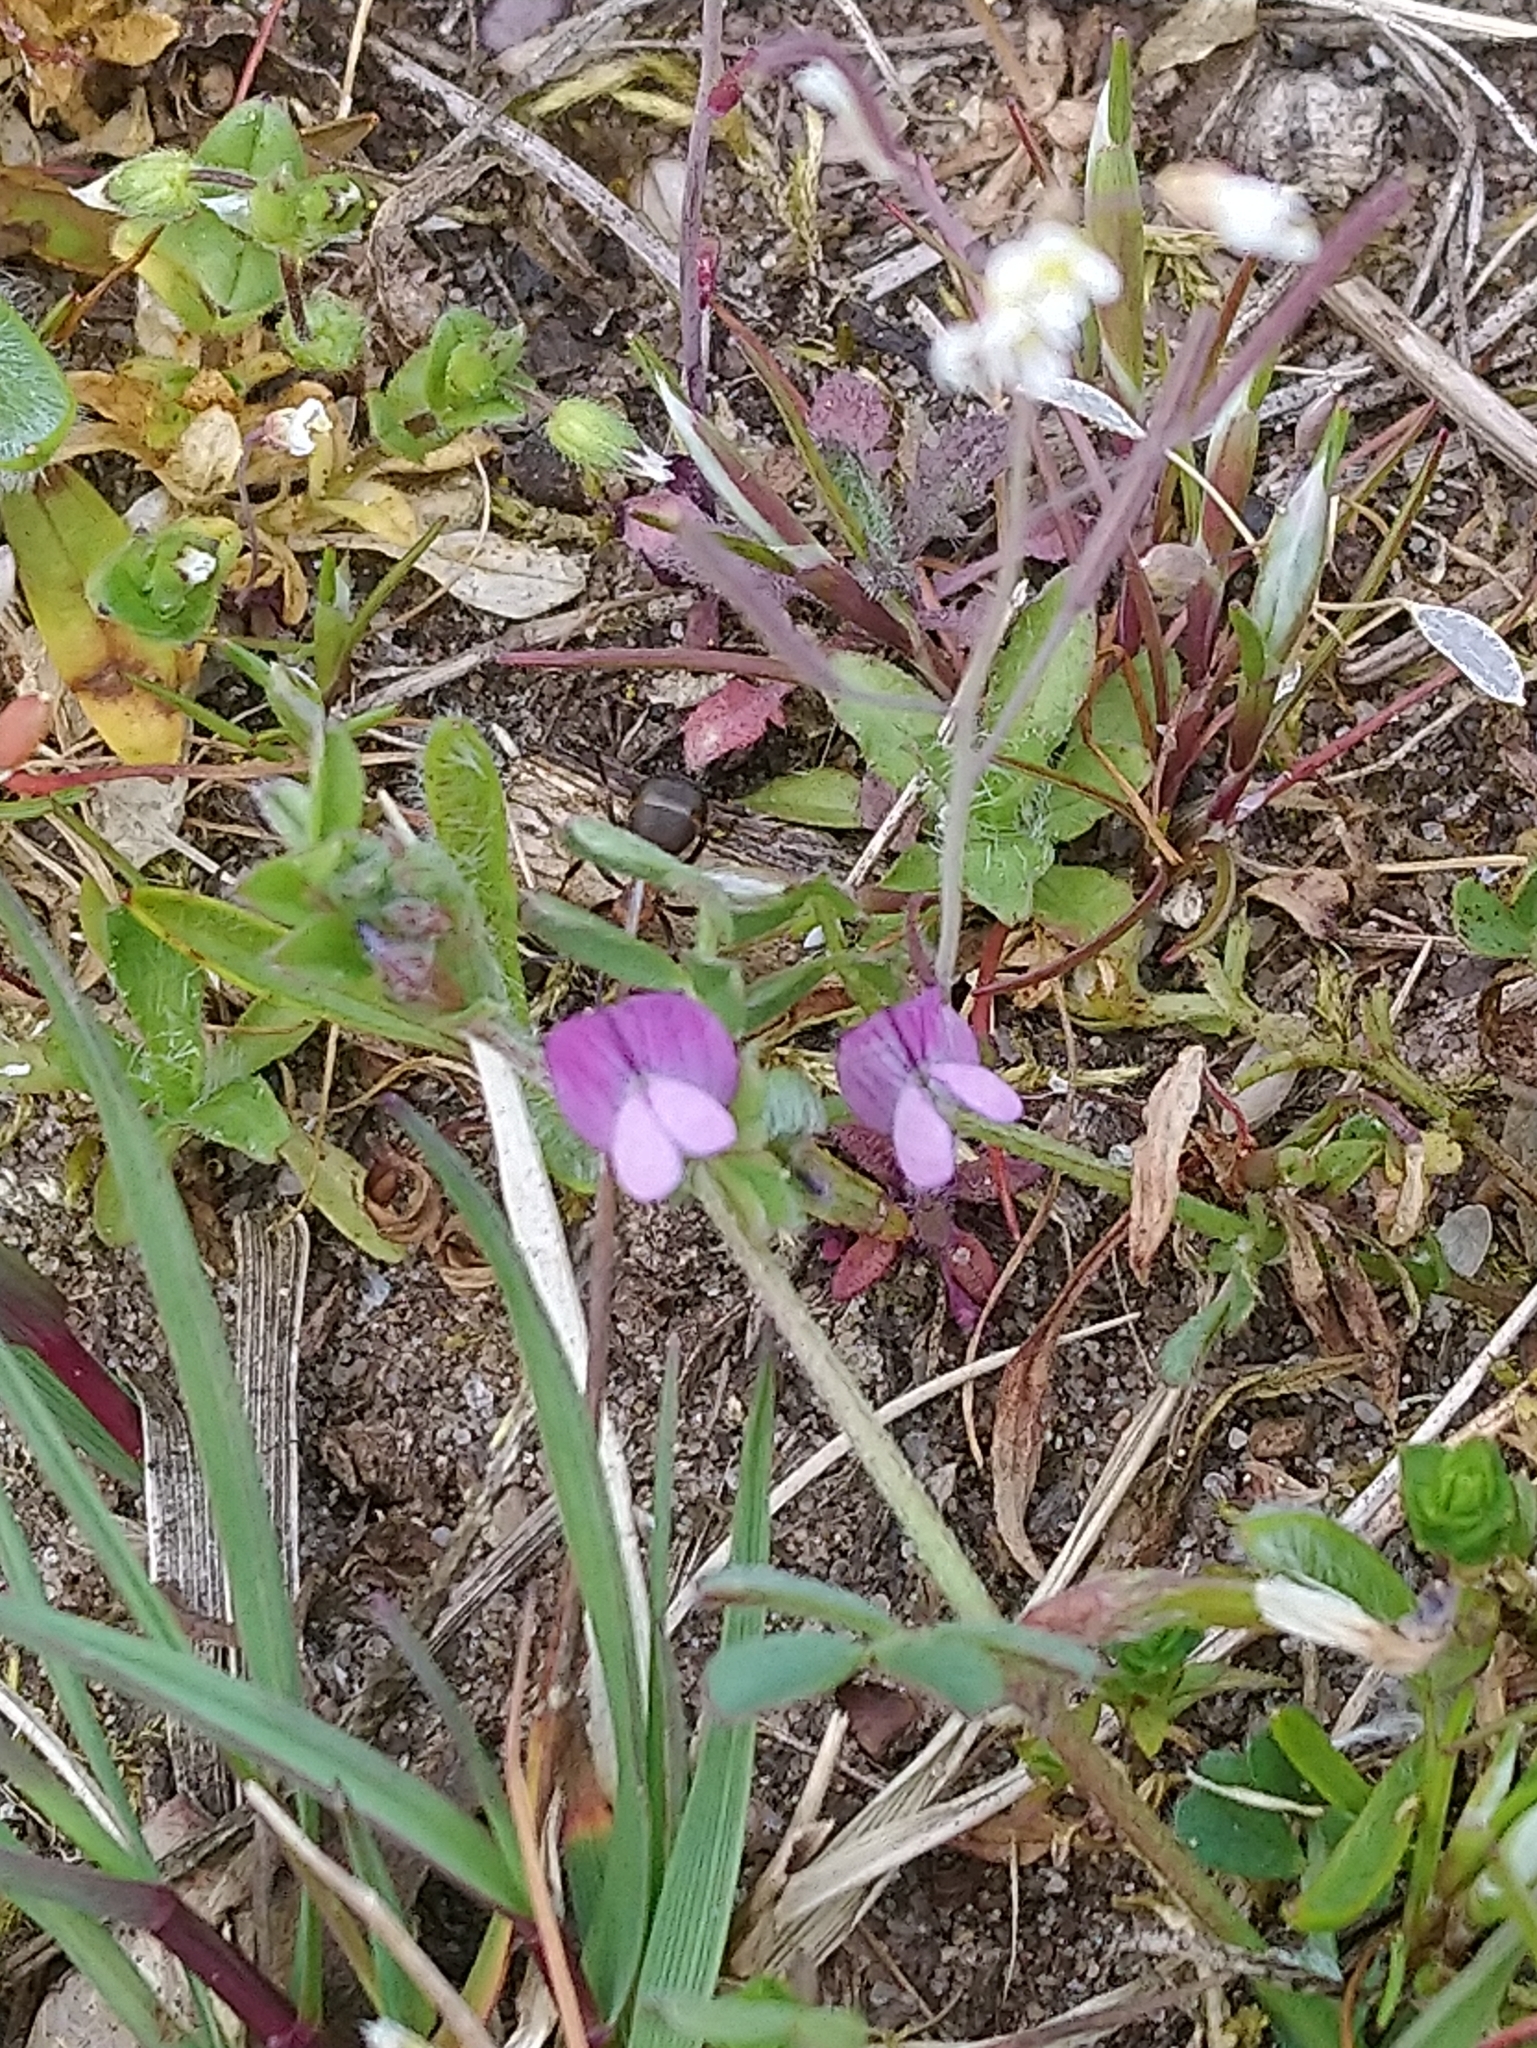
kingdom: Plantae
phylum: Tracheophyta
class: Magnoliopsida
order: Fabales
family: Fabaceae
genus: Vicia
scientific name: Vicia lathyroides
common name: Spring vetch
